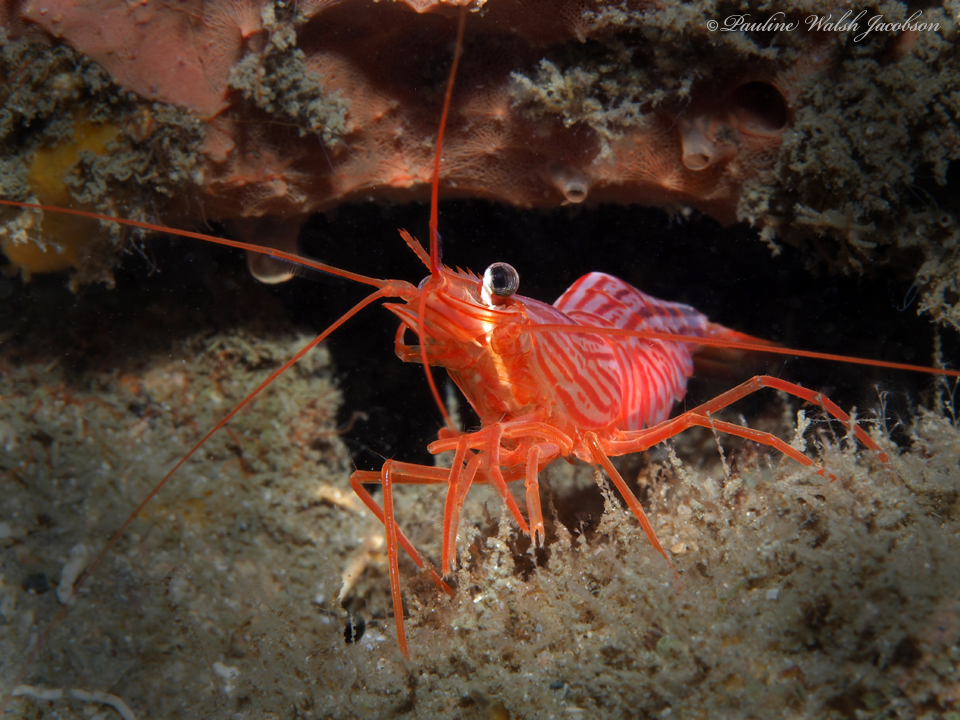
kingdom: Animalia
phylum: Arthropoda
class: Malacostraca
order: Decapoda
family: Lysmatidae
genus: Lysmata
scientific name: Lysmata rafa
